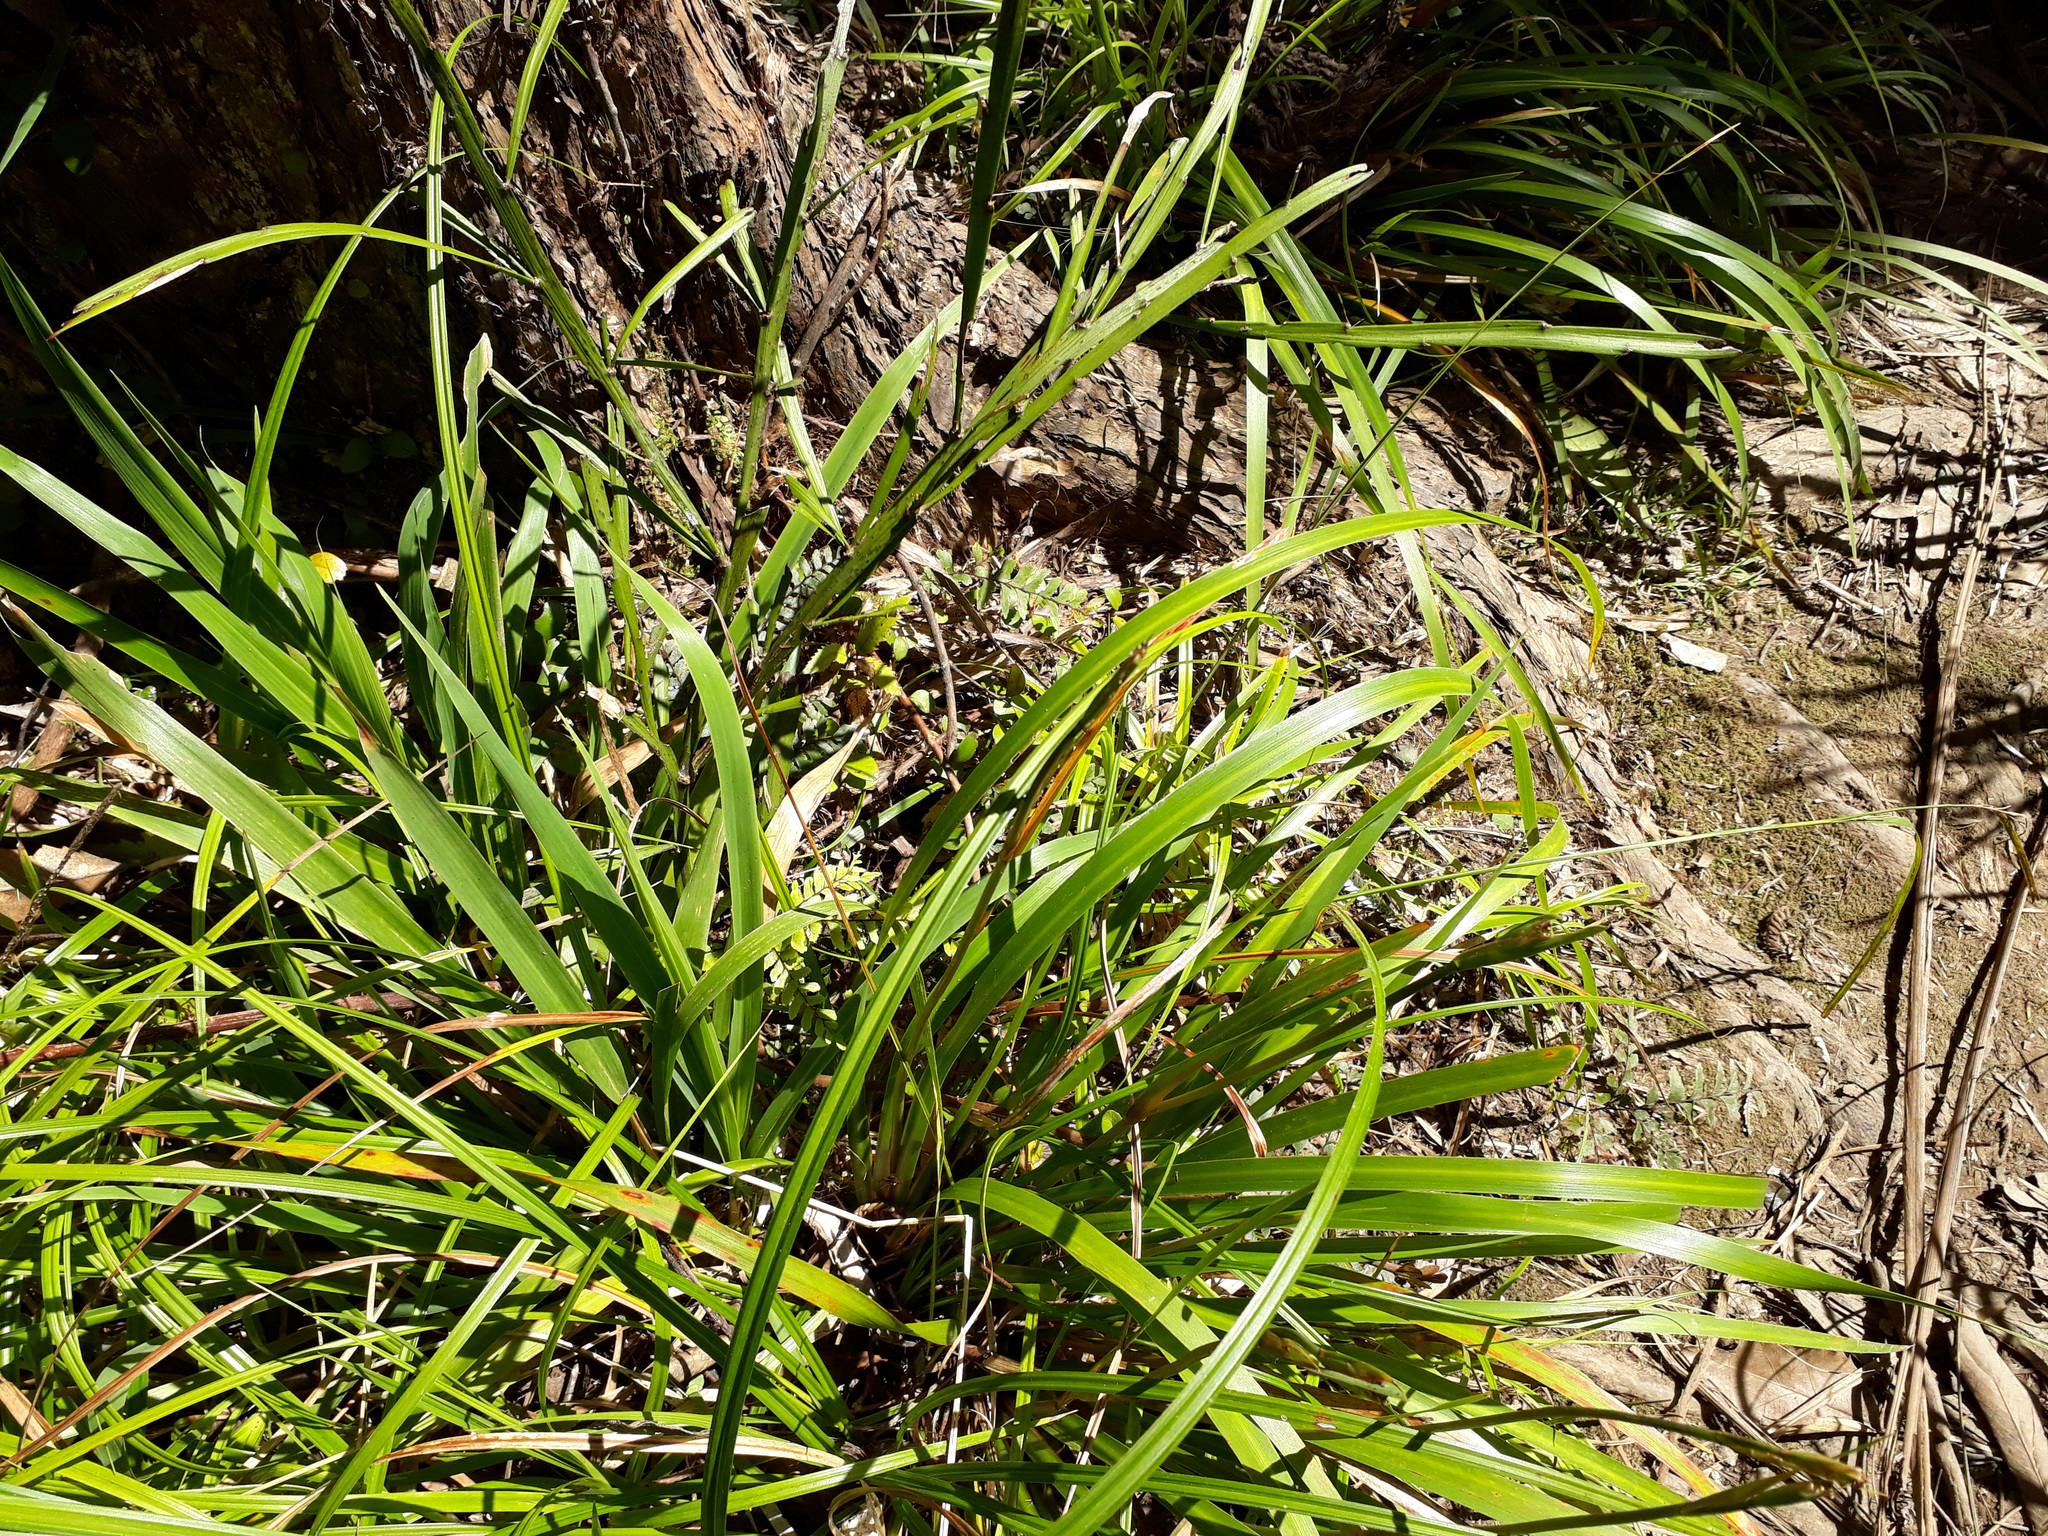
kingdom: Plantae
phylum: Tracheophyta
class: Liliopsida
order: Asparagales
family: Iridaceae
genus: Libertia
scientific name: Libertia flaccidifolia
